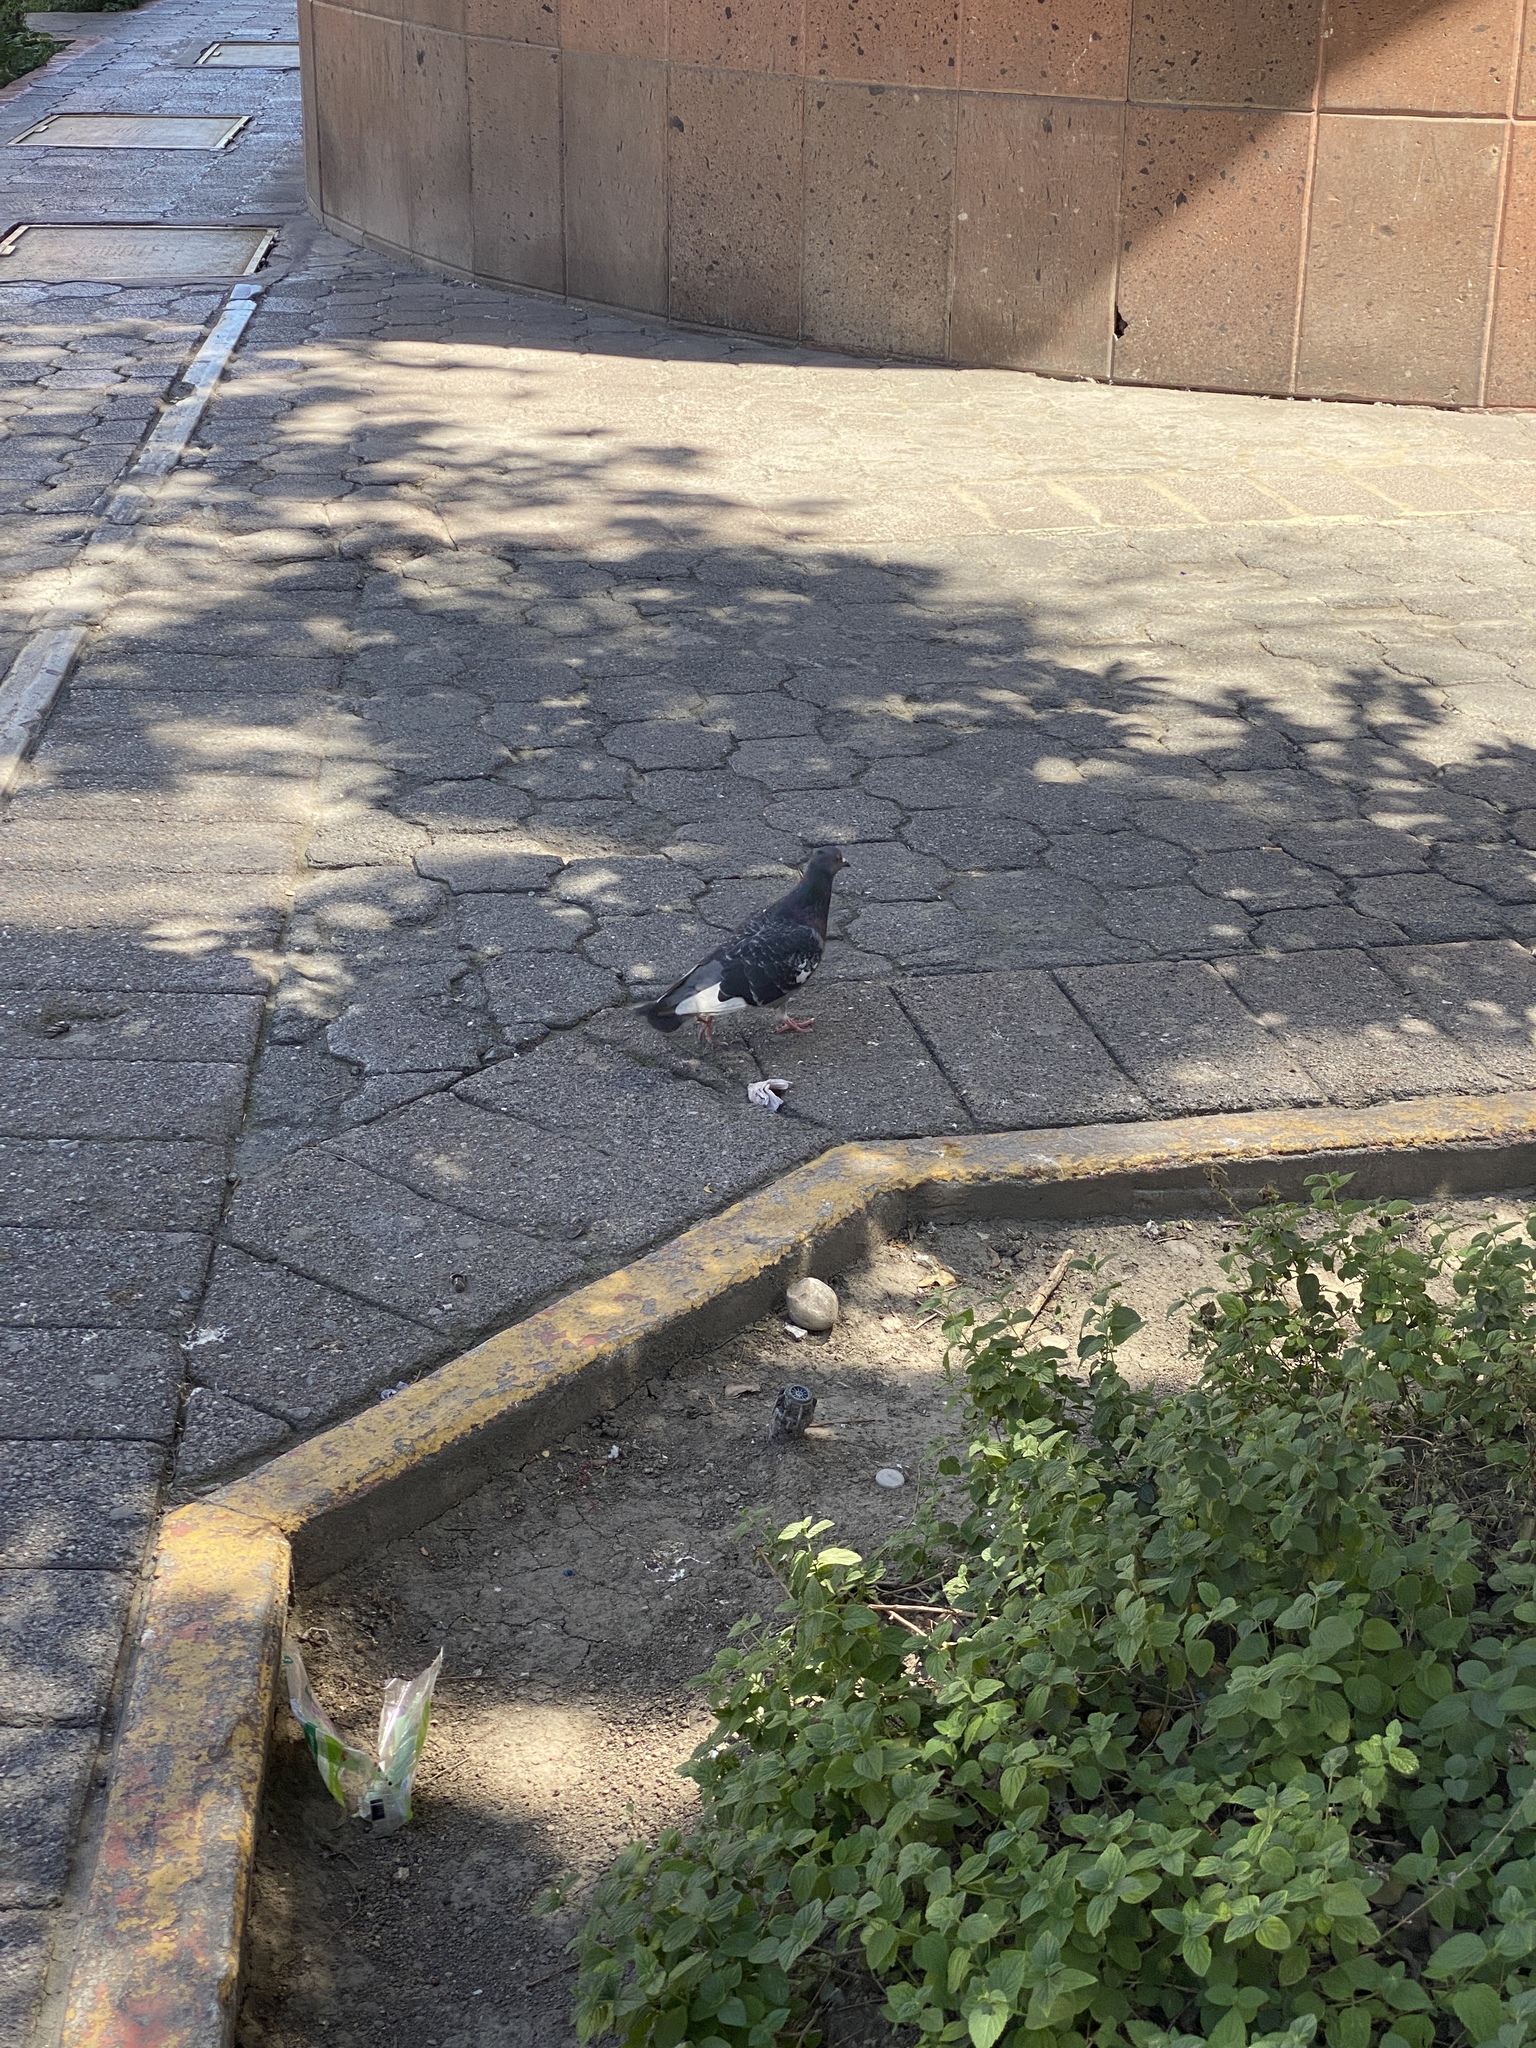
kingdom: Animalia
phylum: Chordata
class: Aves
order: Columbiformes
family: Columbidae
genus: Columba
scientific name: Columba livia
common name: Rock pigeon
